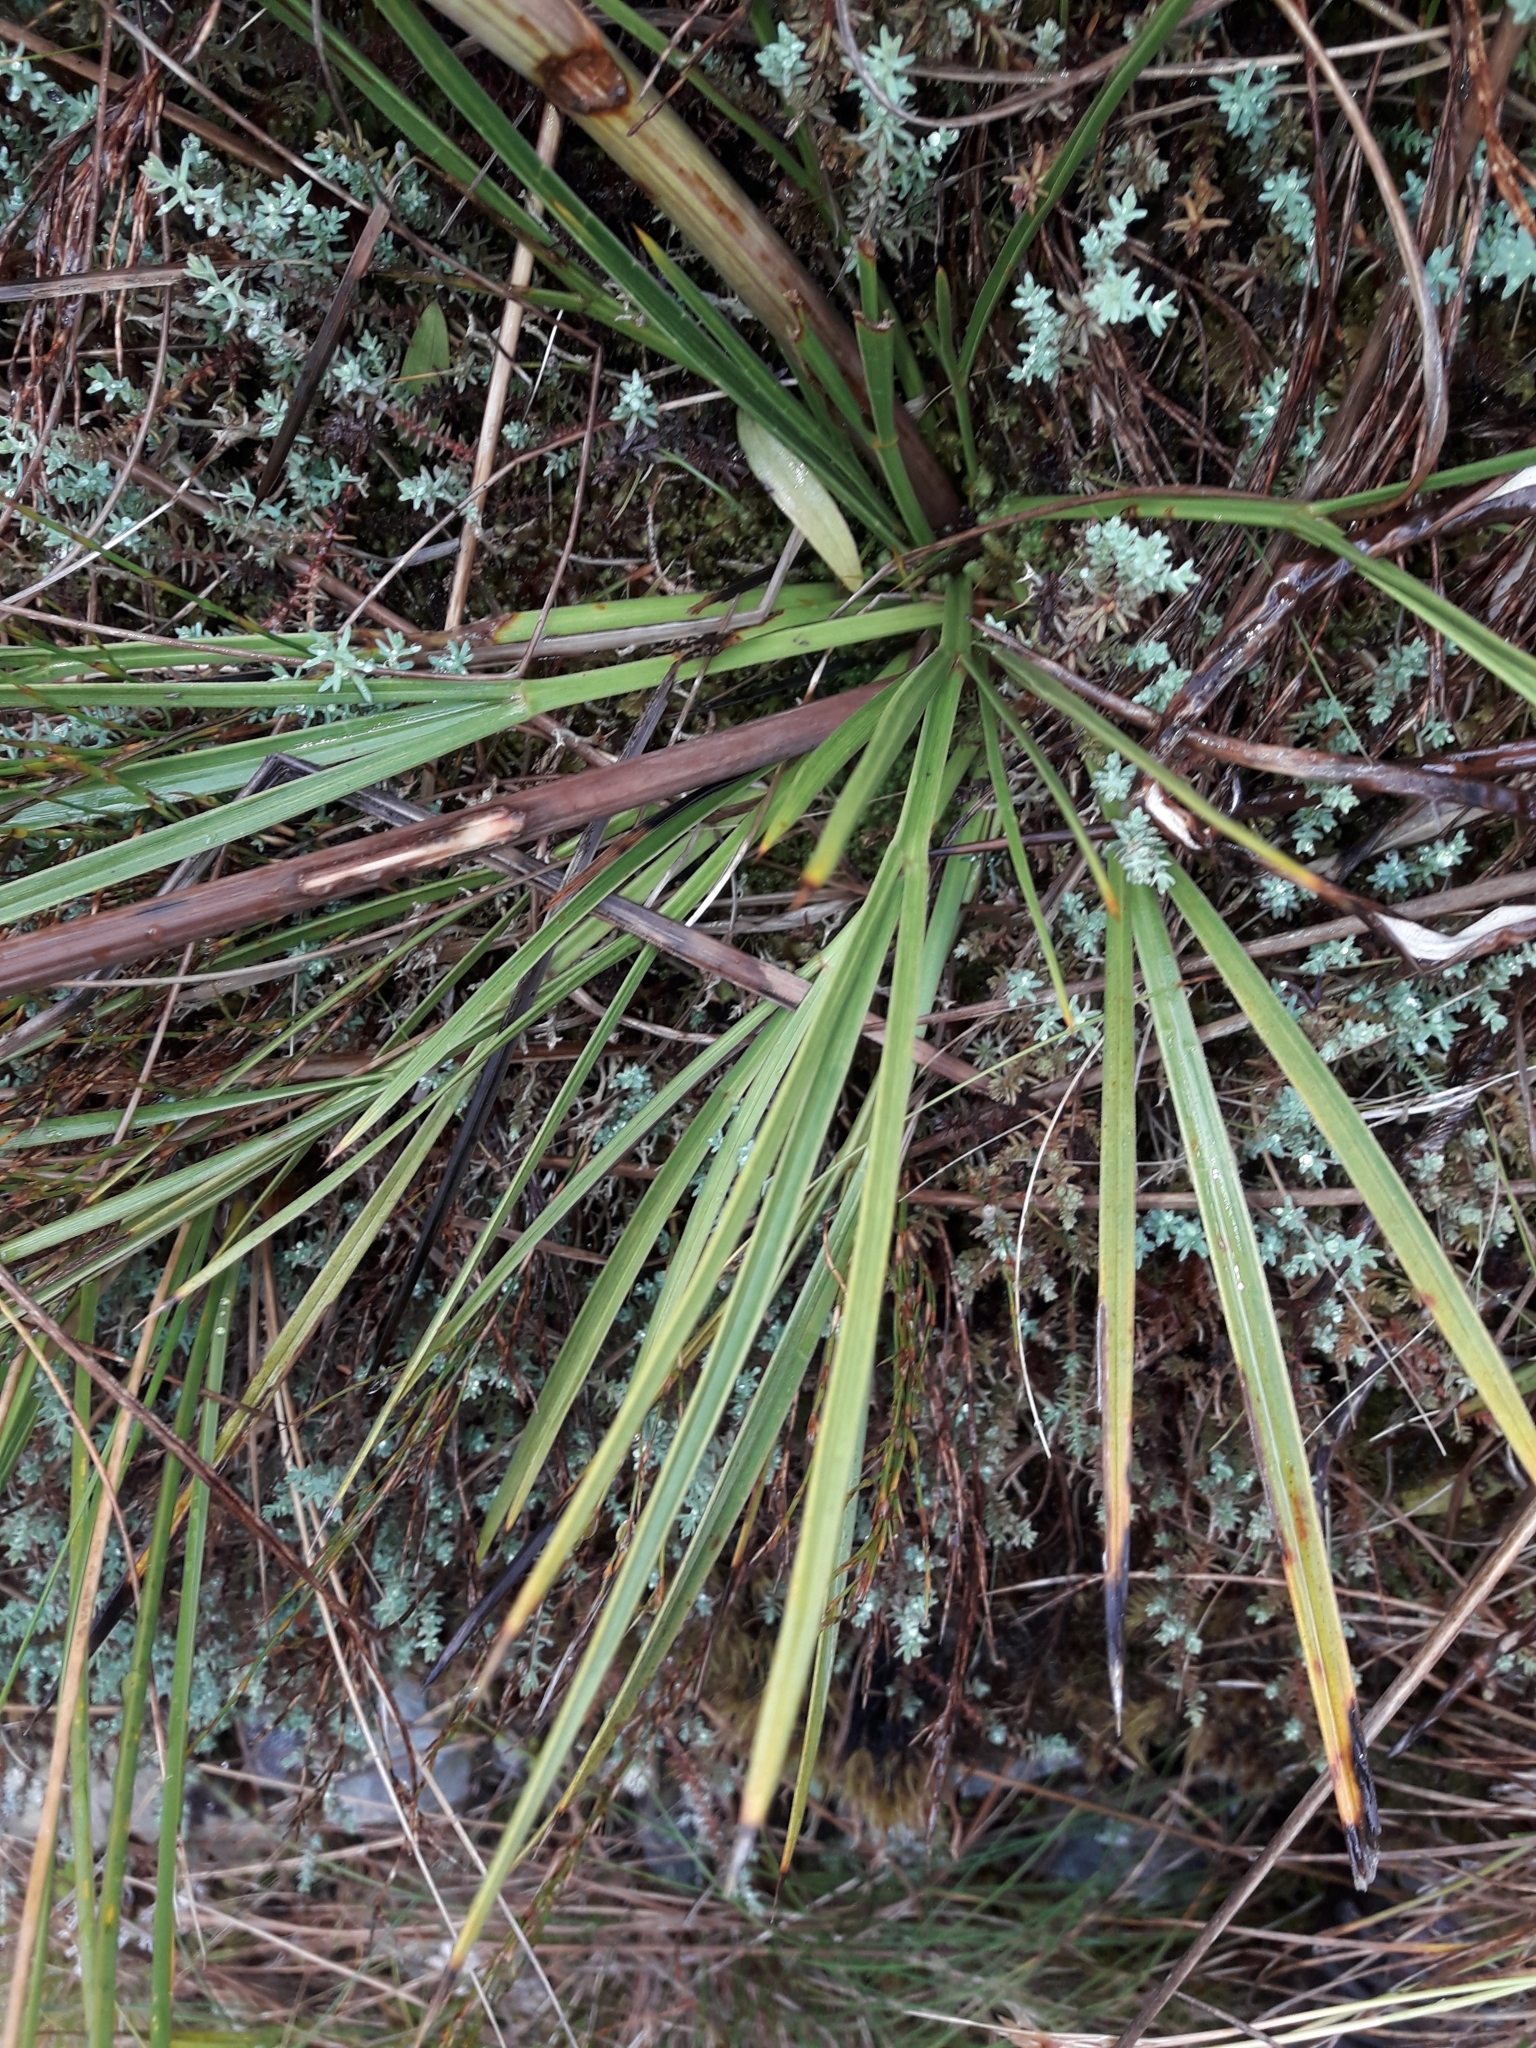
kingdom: Plantae
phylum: Tracheophyta
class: Magnoliopsida
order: Apiales
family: Apiaceae
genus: Aciphylla
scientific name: Aciphylla crenulata
